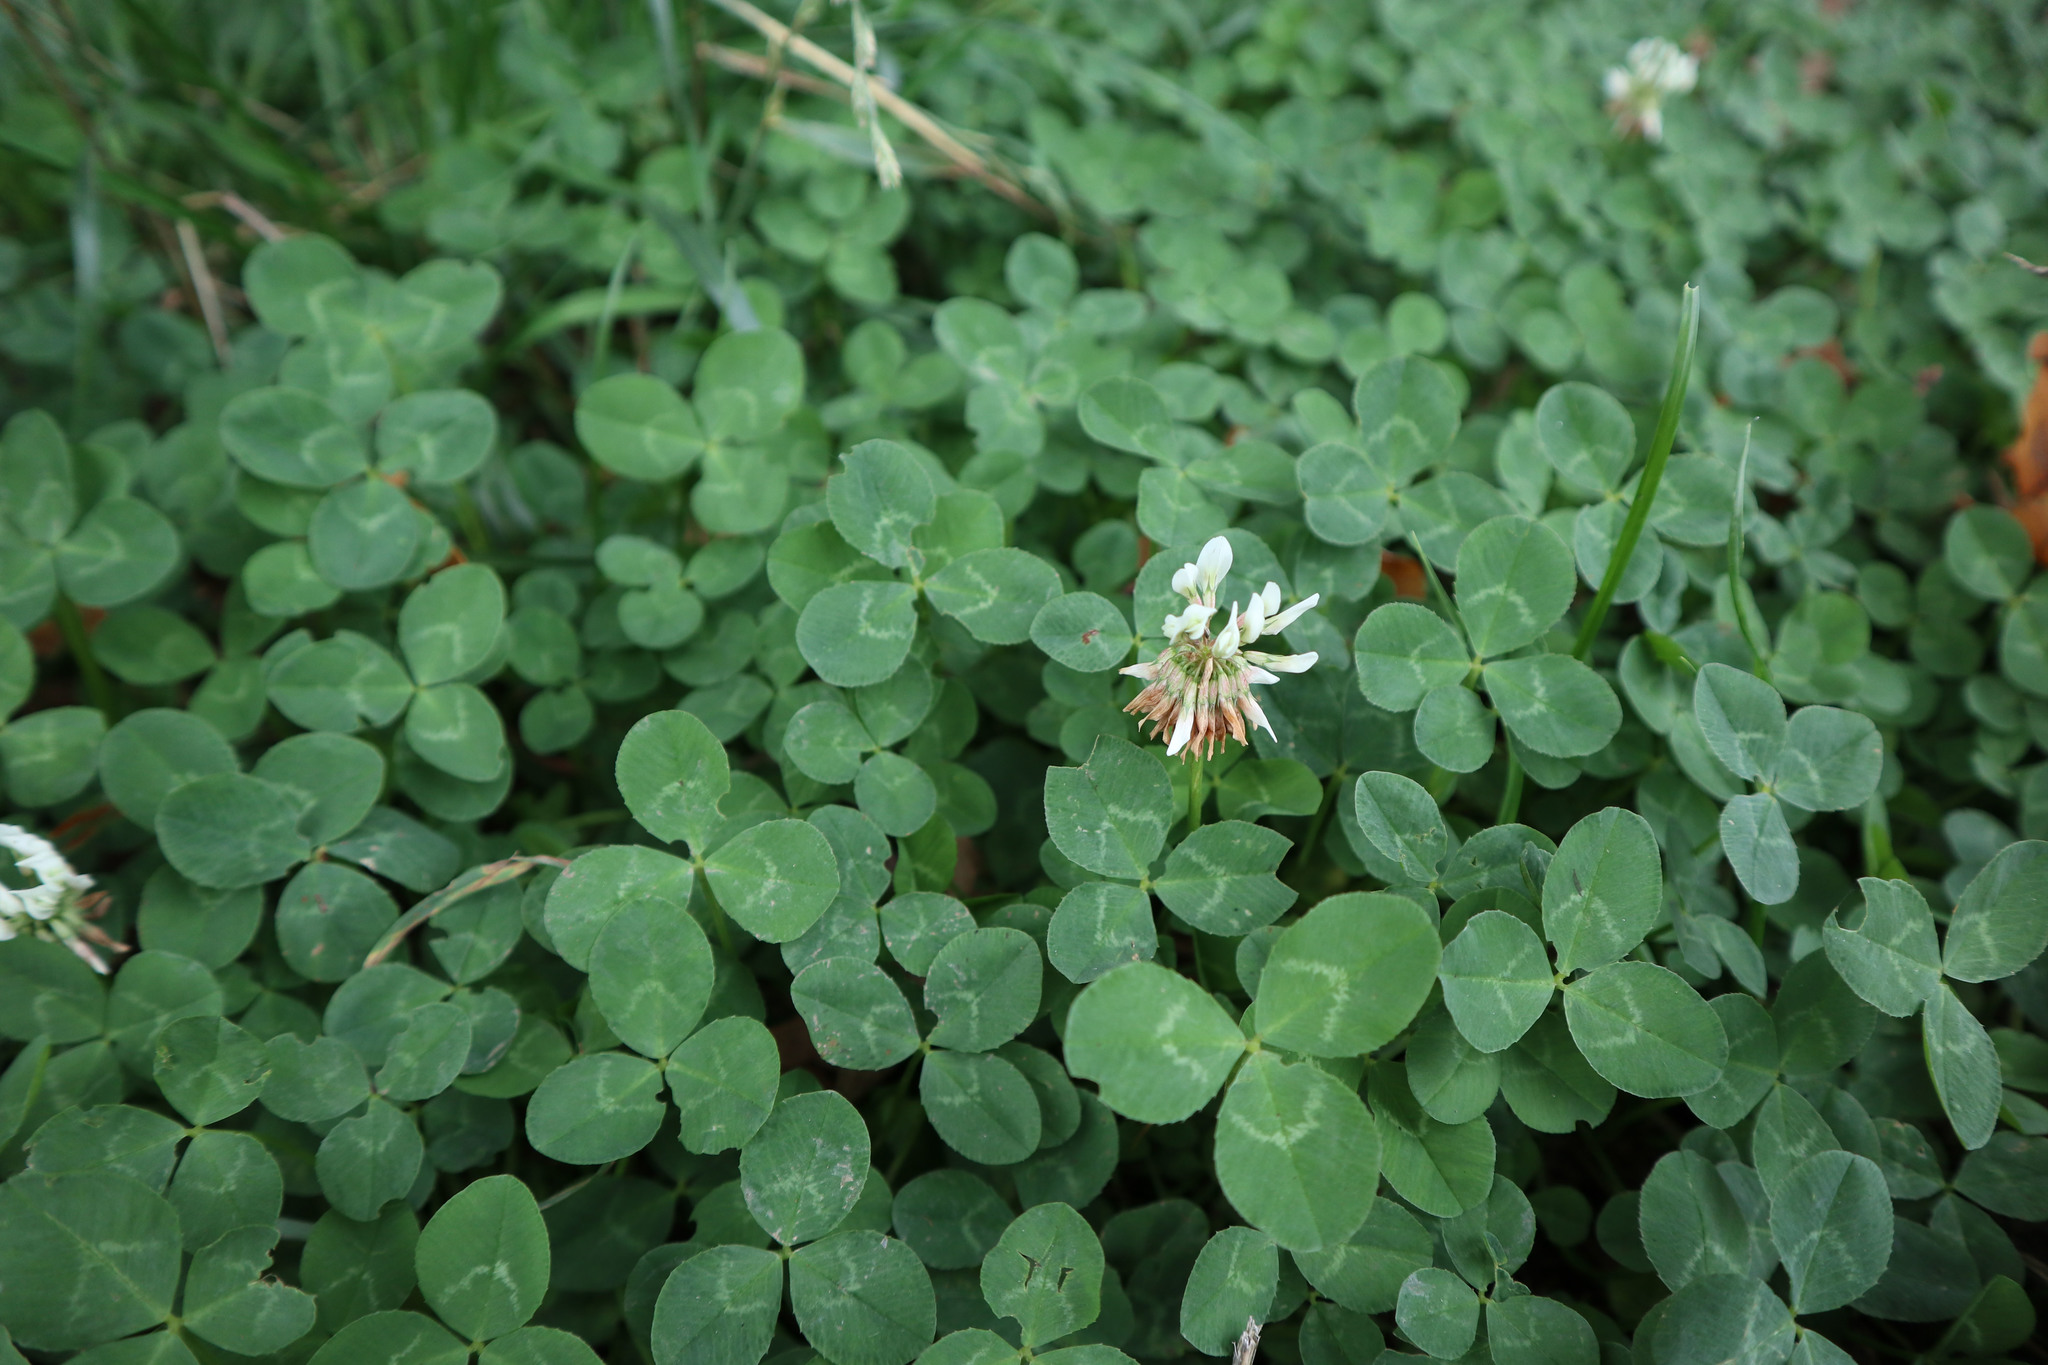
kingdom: Plantae
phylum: Tracheophyta
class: Magnoliopsida
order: Fabales
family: Fabaceae
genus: Trifolium
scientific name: Trifolium repens
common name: White clover
